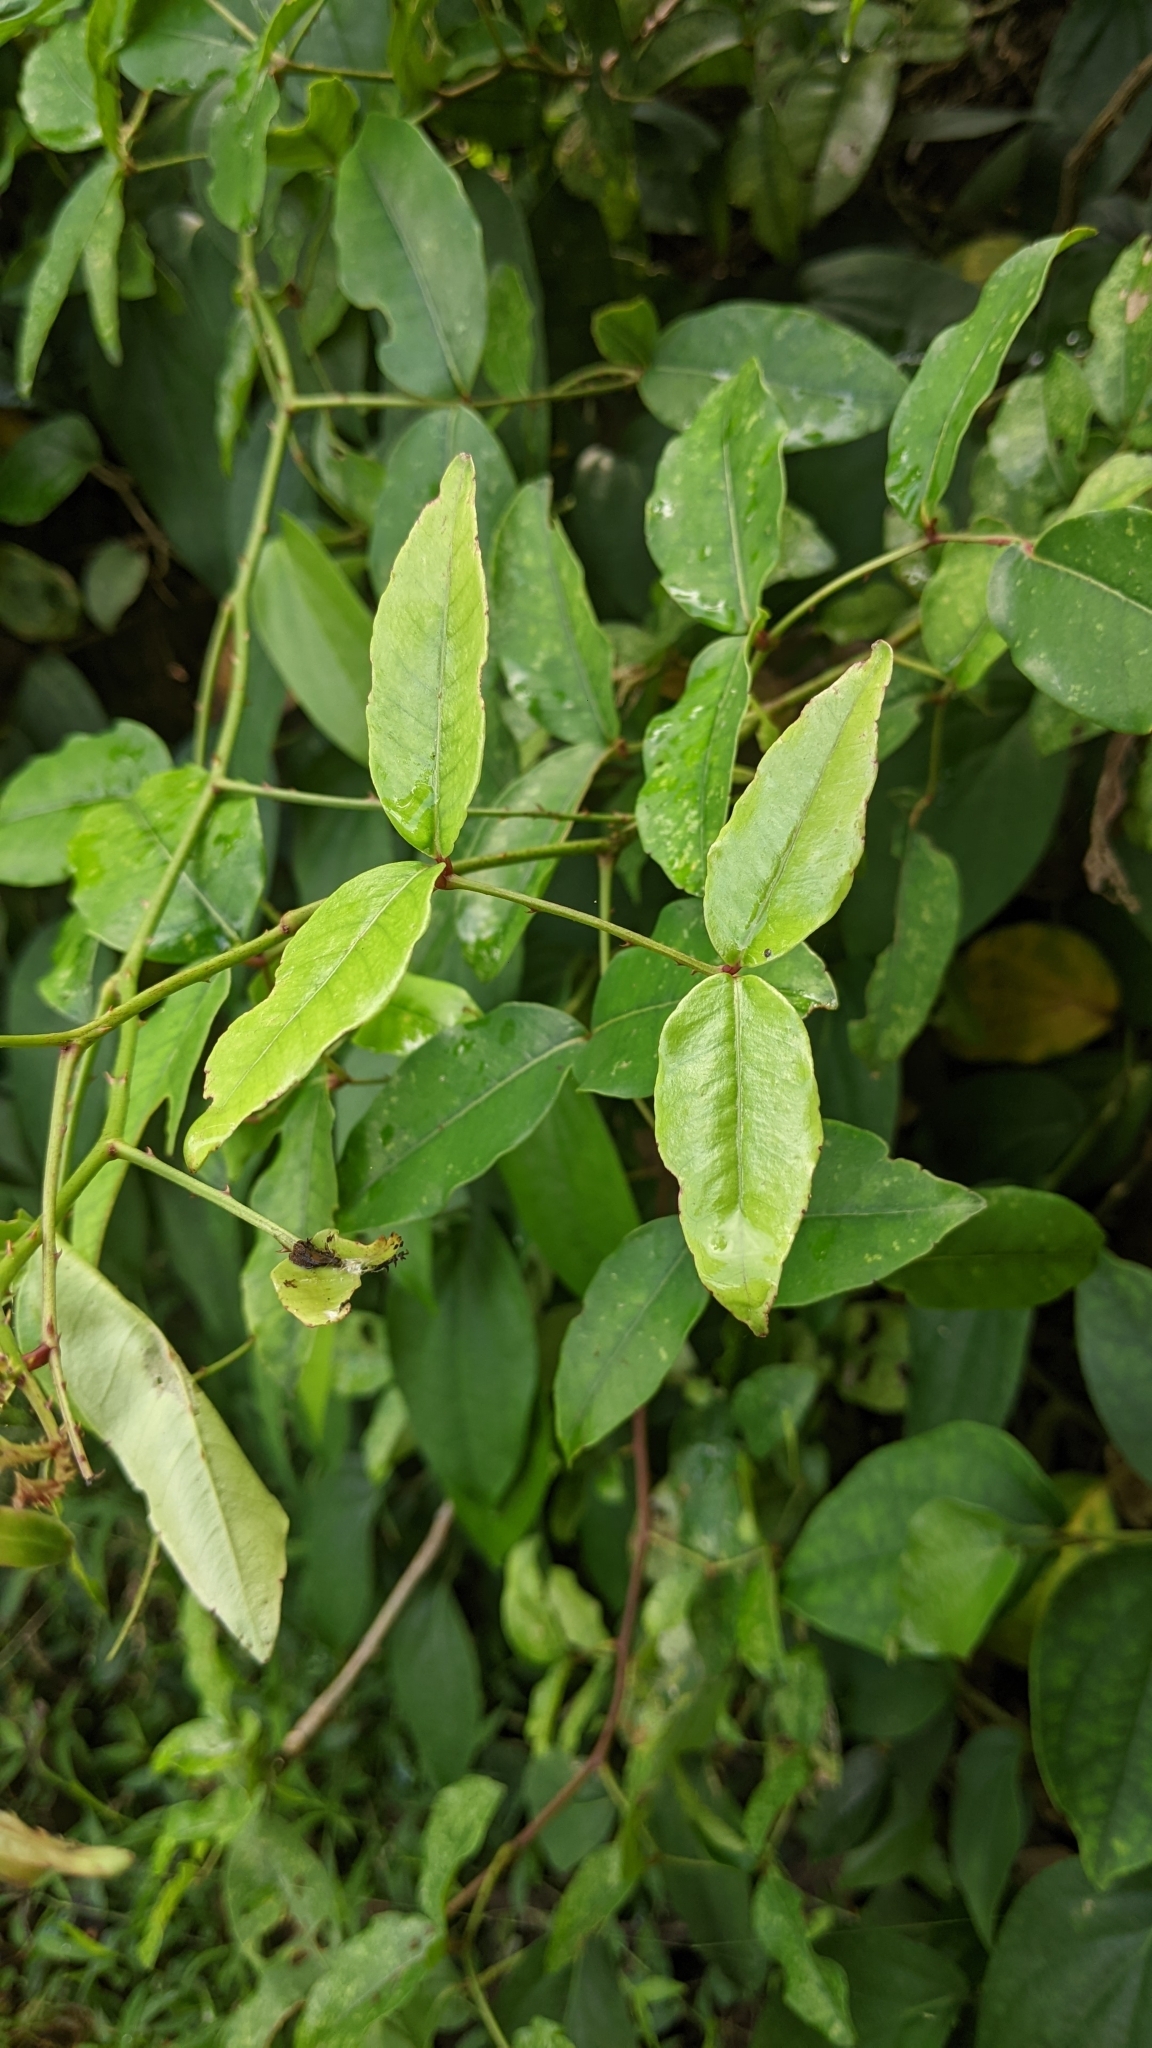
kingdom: Plantae
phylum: Tracheophyta
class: Magnoliopsida
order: Sapindales
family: Rutaceae
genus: Zanthoxylum
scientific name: Zanthoxylum nitidum
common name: Shiny-leaf prickly-ash
